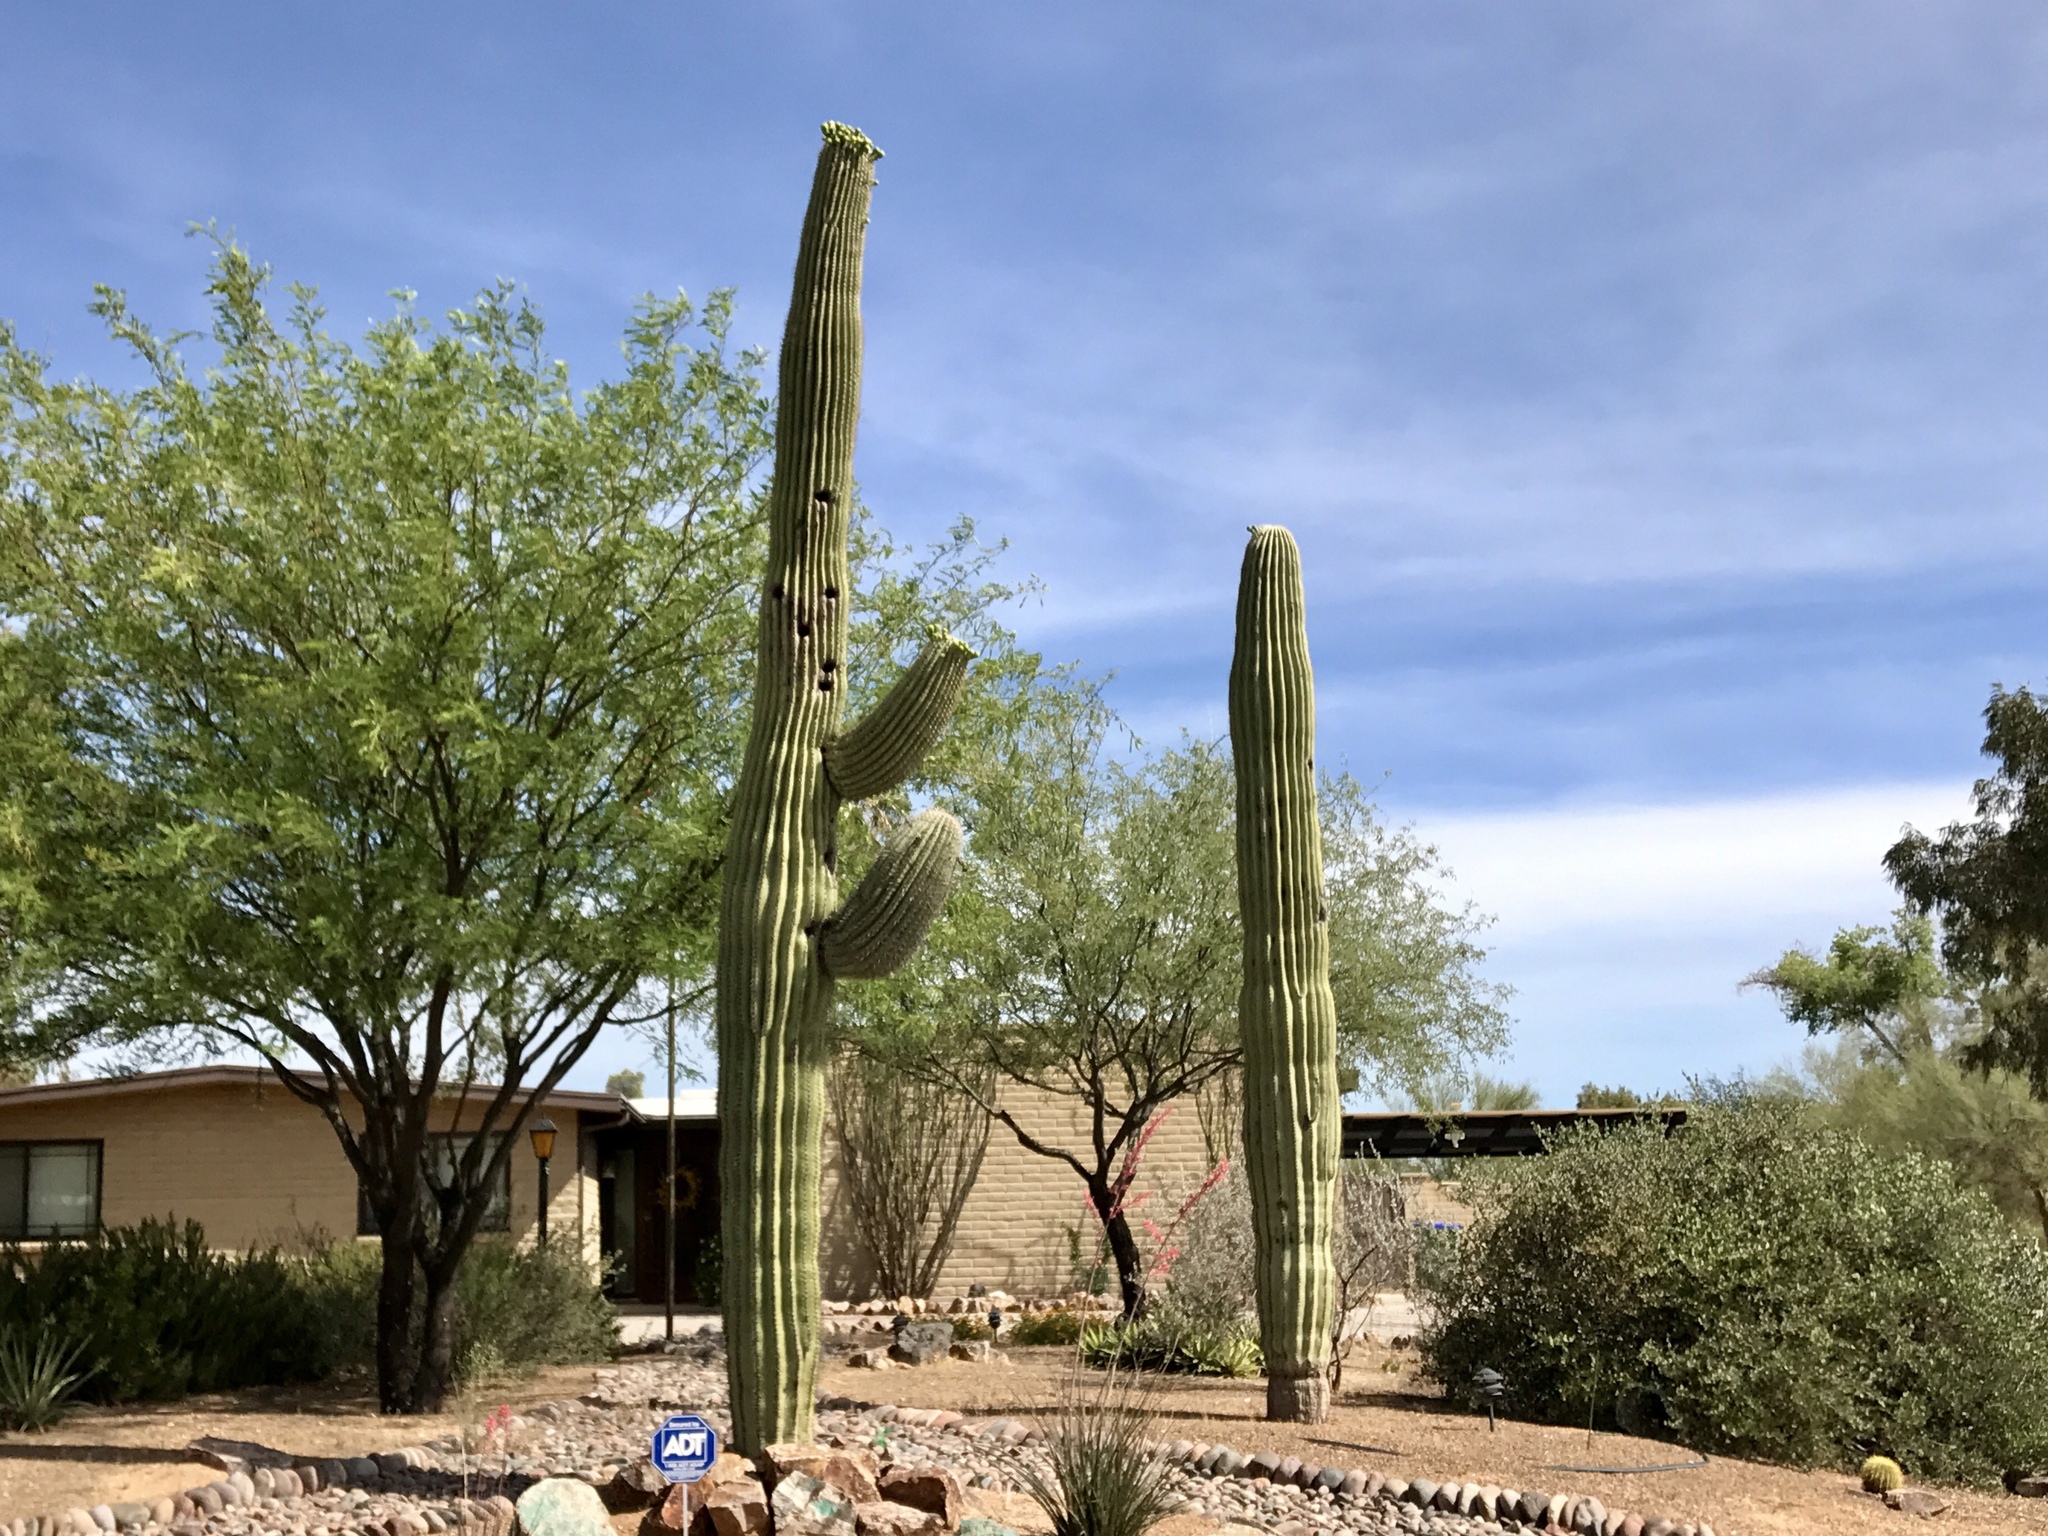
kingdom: Plantae
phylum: Tracheophyta
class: Magnoliopsida
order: Caryophyllales
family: Cactaceae
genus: Carnegiea
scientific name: Carnegiea gigantea
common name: Saguaro
